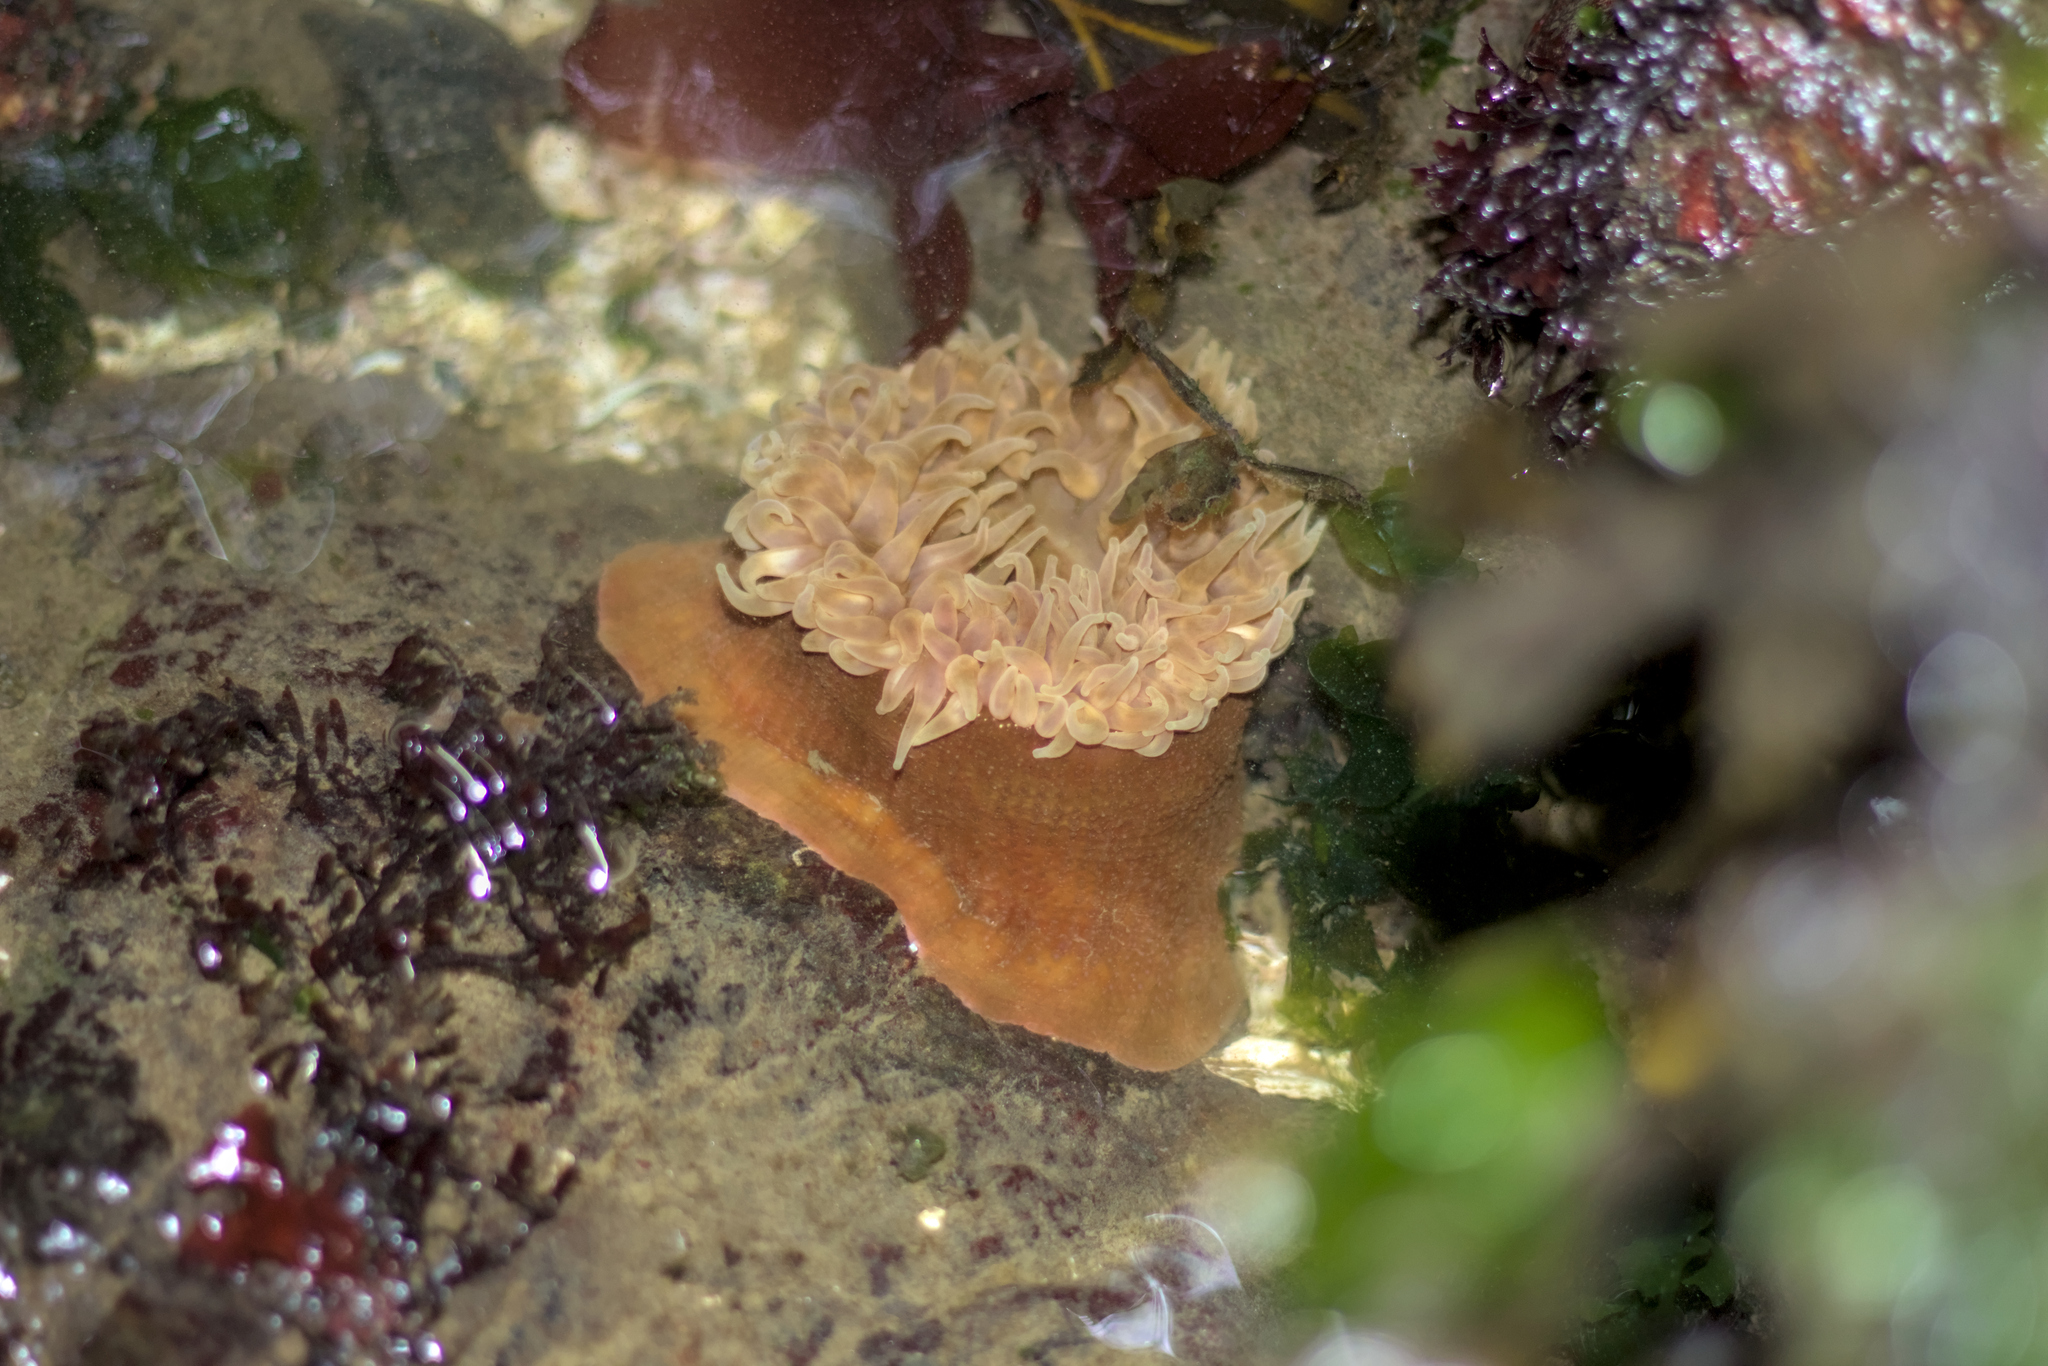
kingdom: Animalia
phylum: Cnidaria
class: Anthozoa
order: Actiniaria
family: Actiniidae
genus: Urticina
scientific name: Urticina grebelnyi
